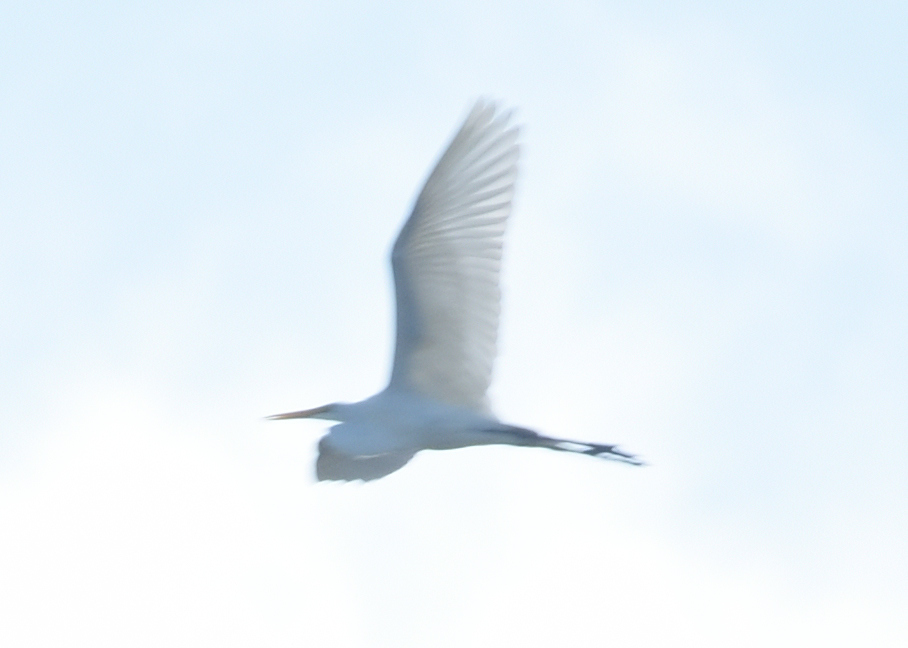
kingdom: Animalia
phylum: Chordata
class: Aves
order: Pelecaniformes
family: Ardeidae
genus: Ardea
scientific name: Ardea alba
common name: Great egret
